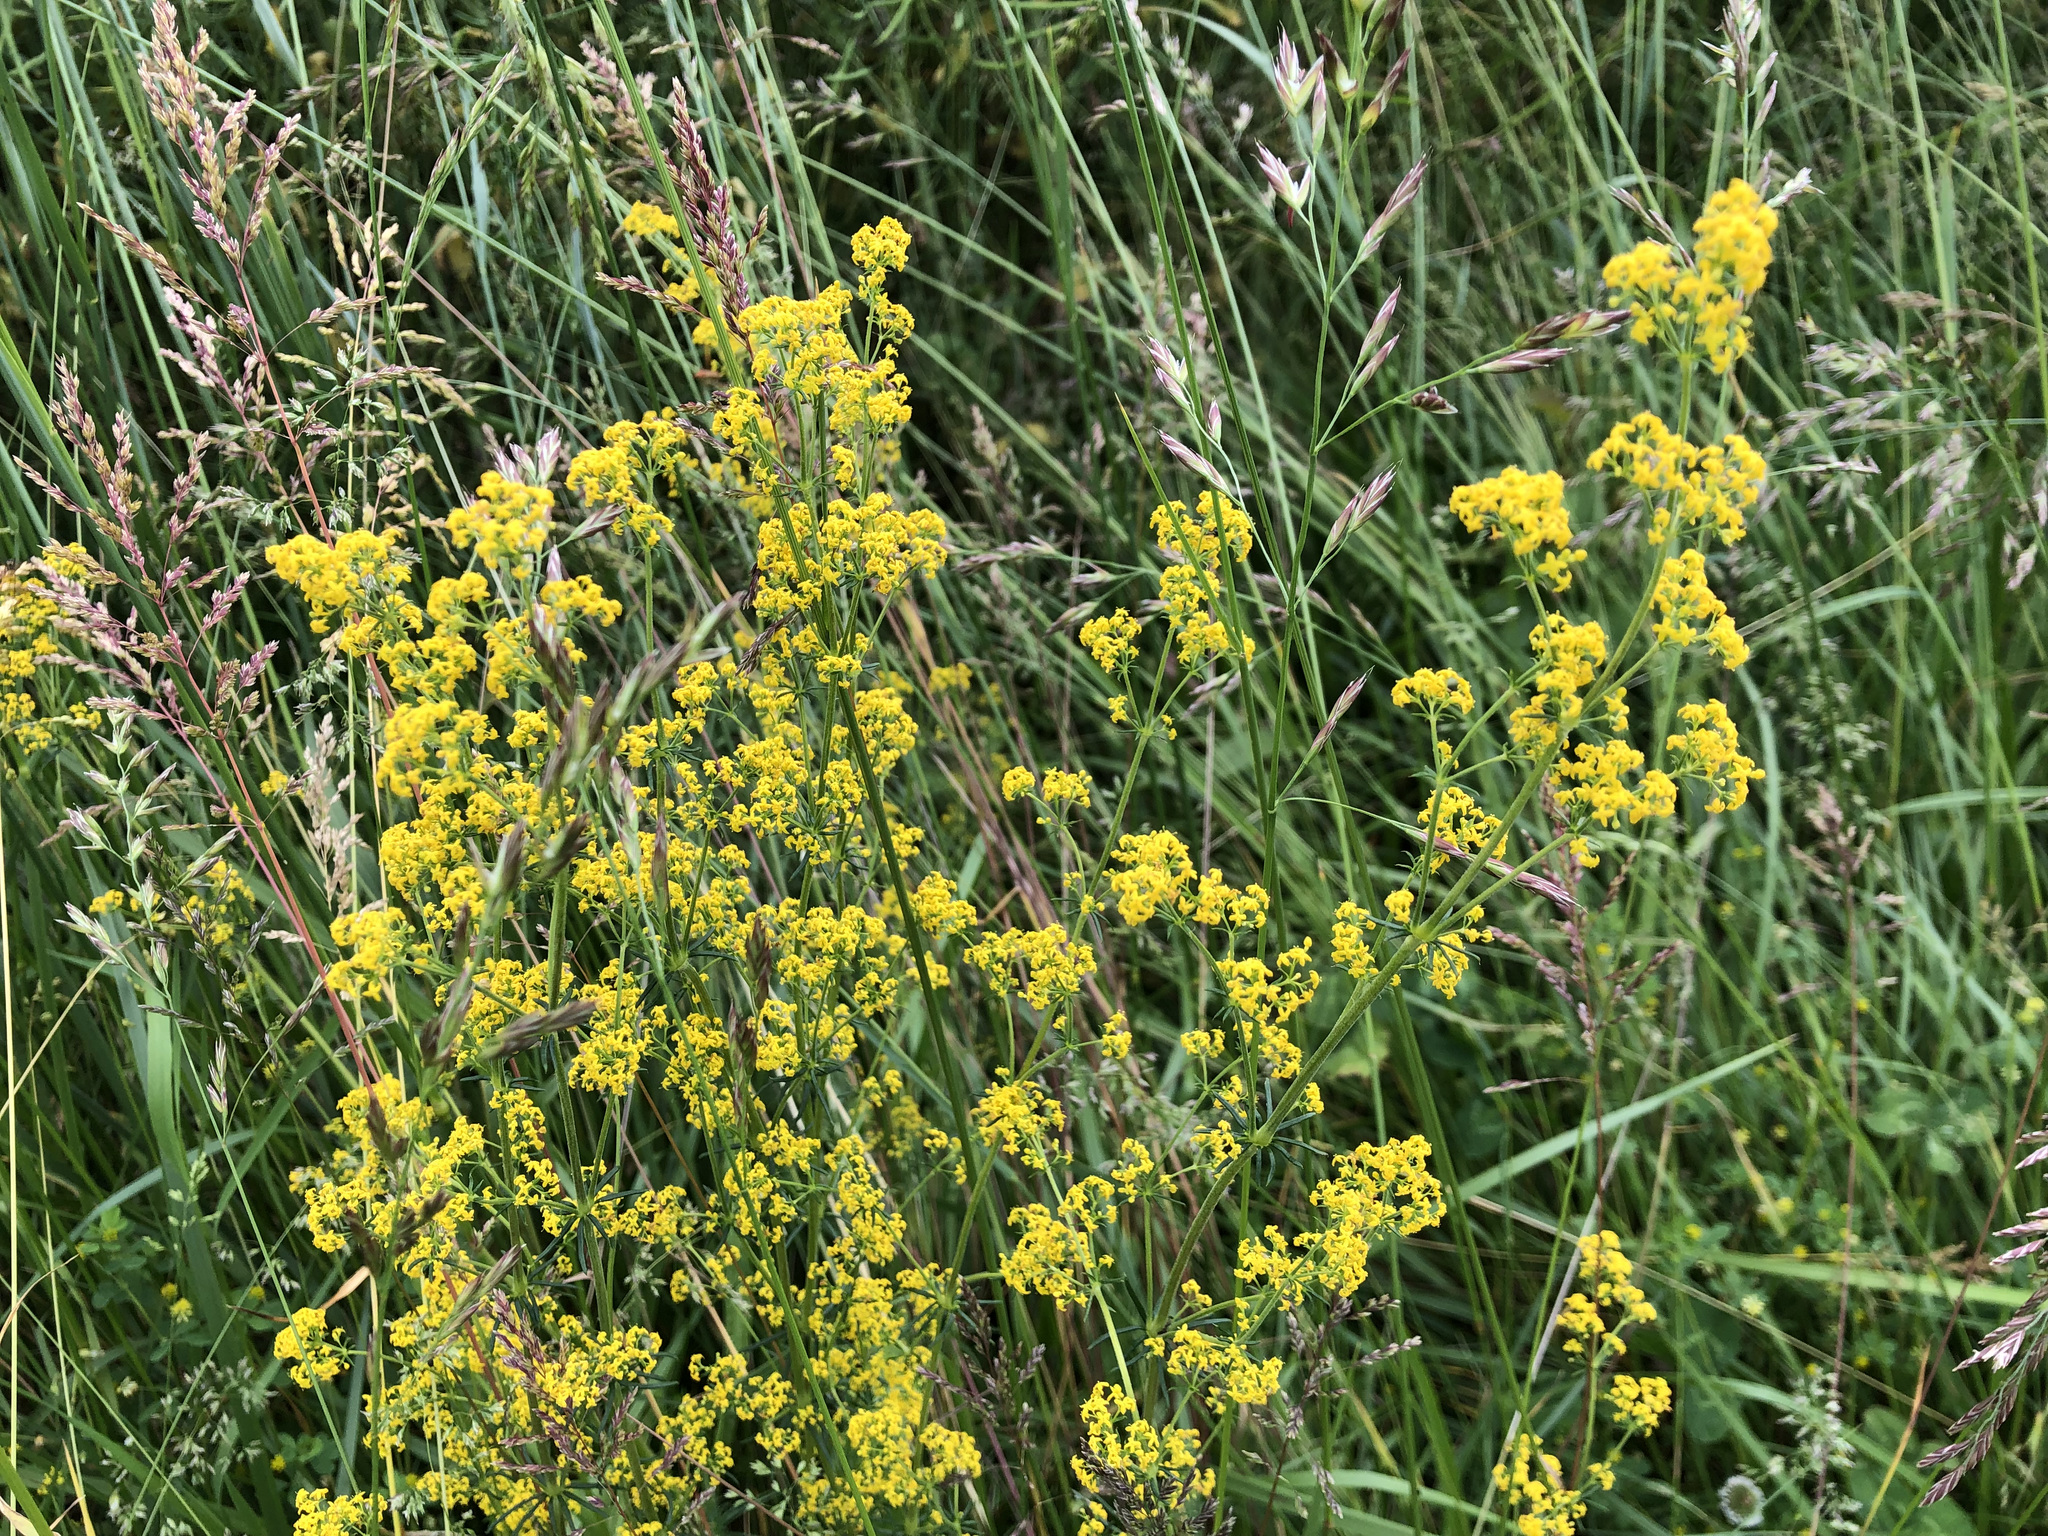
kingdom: Plantae
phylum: Tracheophyta
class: Magnoliopsida
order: Gentianales
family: Rubiaceae
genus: Galium
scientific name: Galium verum
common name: Lady's bedstraw
